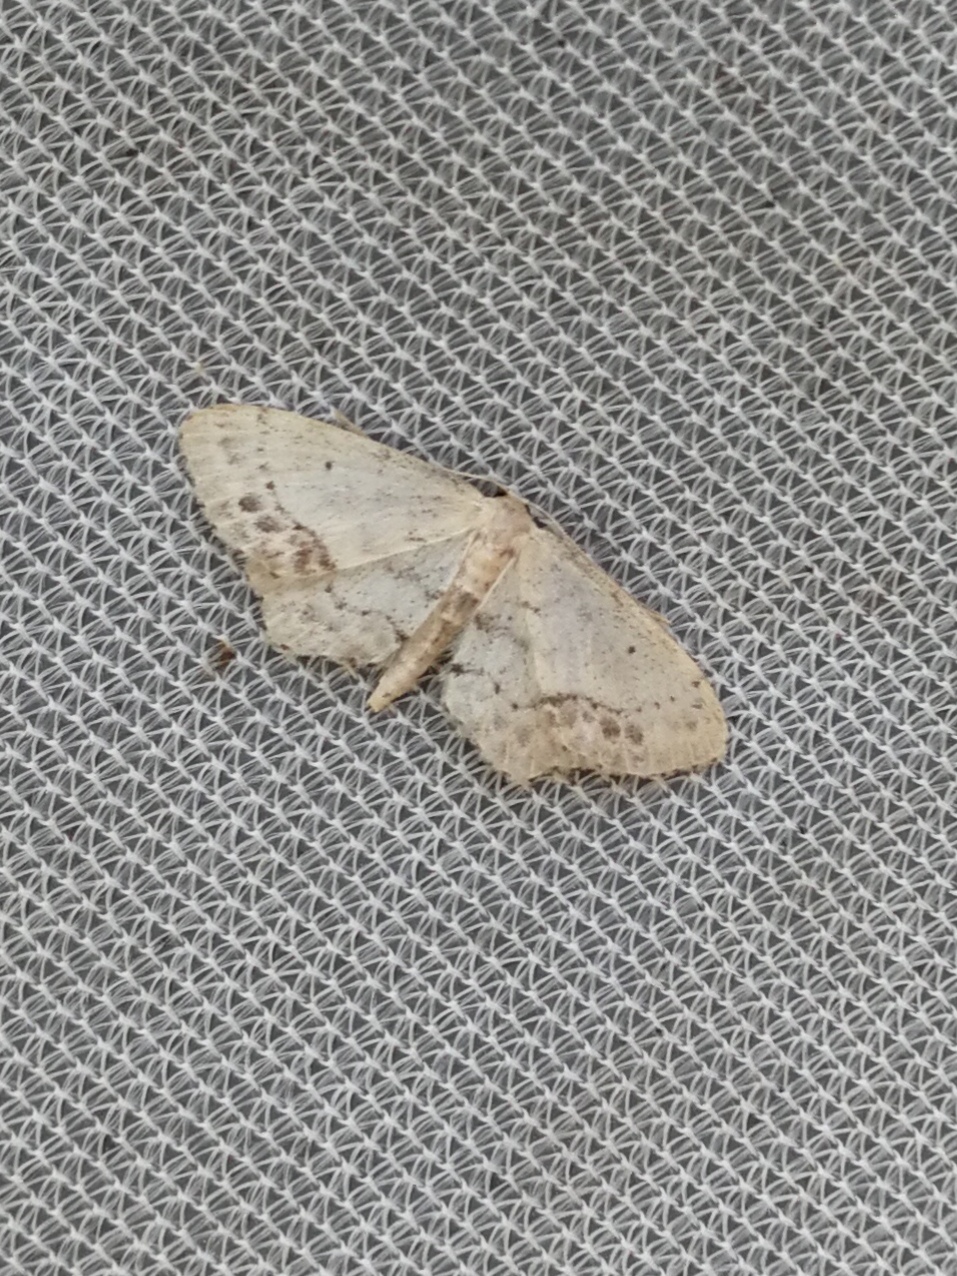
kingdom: Animalia
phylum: Arthropoda
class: Insecta
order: Lepidoptera
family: Geometridae
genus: Idaea
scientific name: Idaea dimidiata
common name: Single-dotted wave
